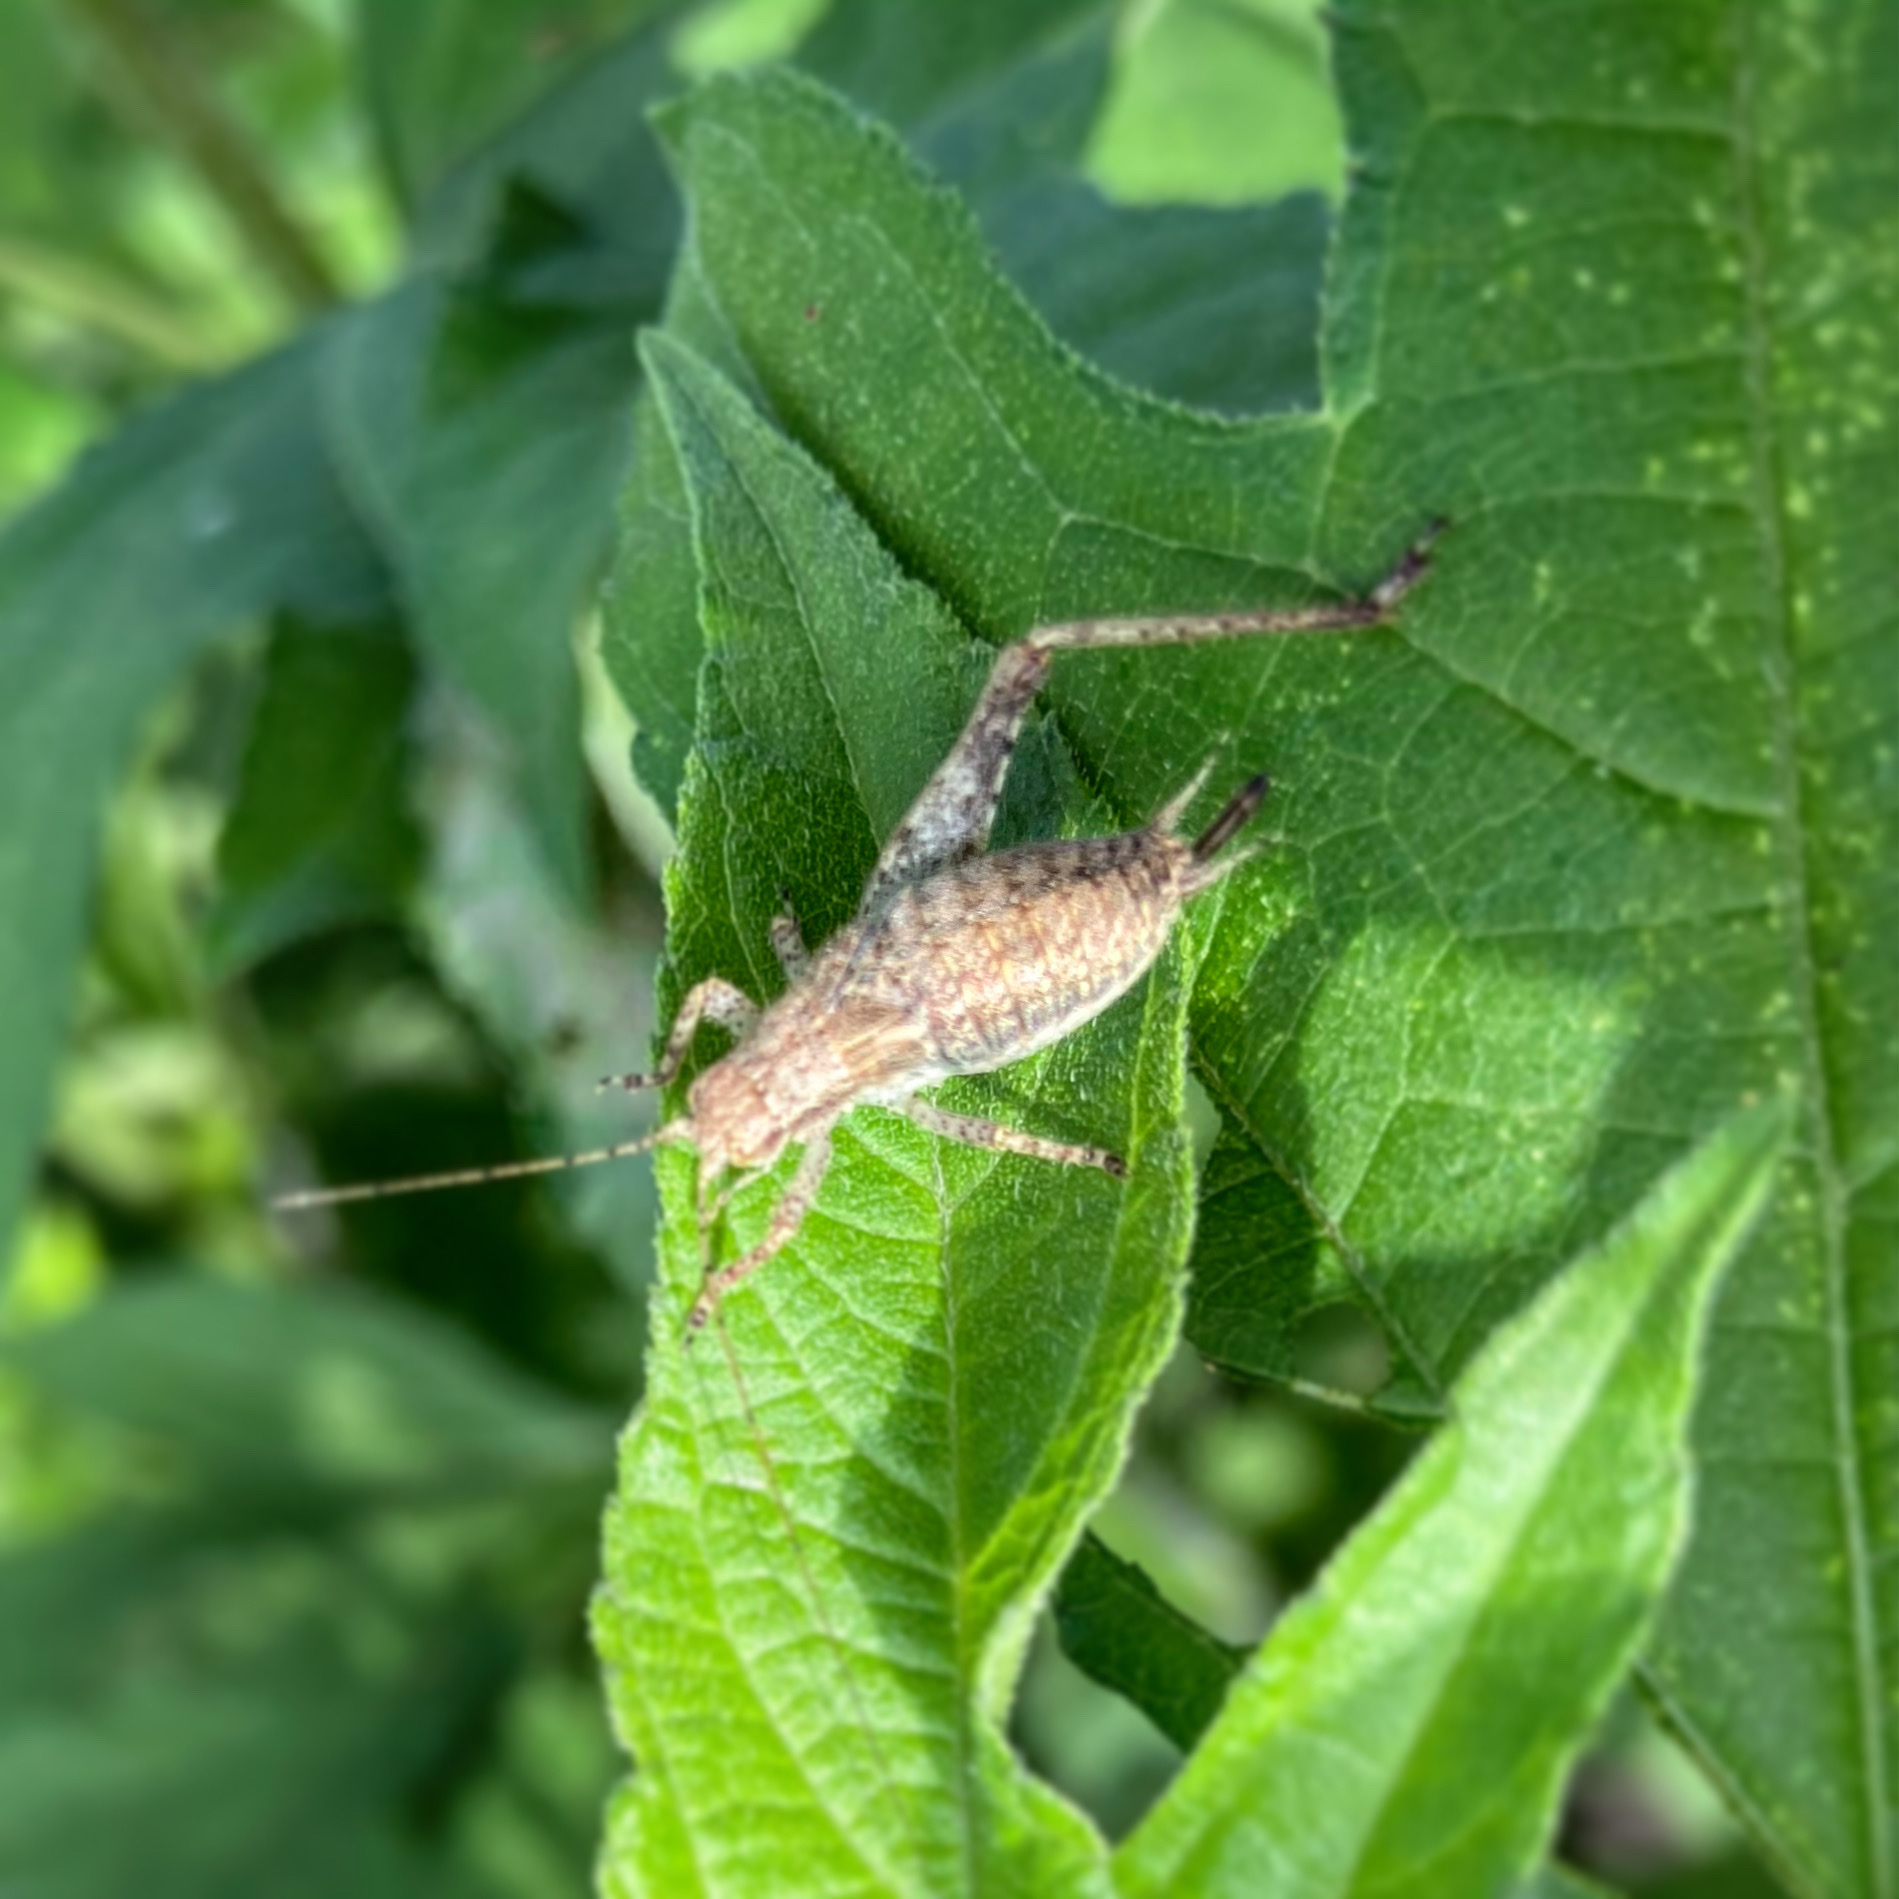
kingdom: Animalia
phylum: Arthropoda
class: Insecta
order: Orthoptera
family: Gryllidae
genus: Hapithus
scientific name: Hapithus agitator
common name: Restless bush cricket
